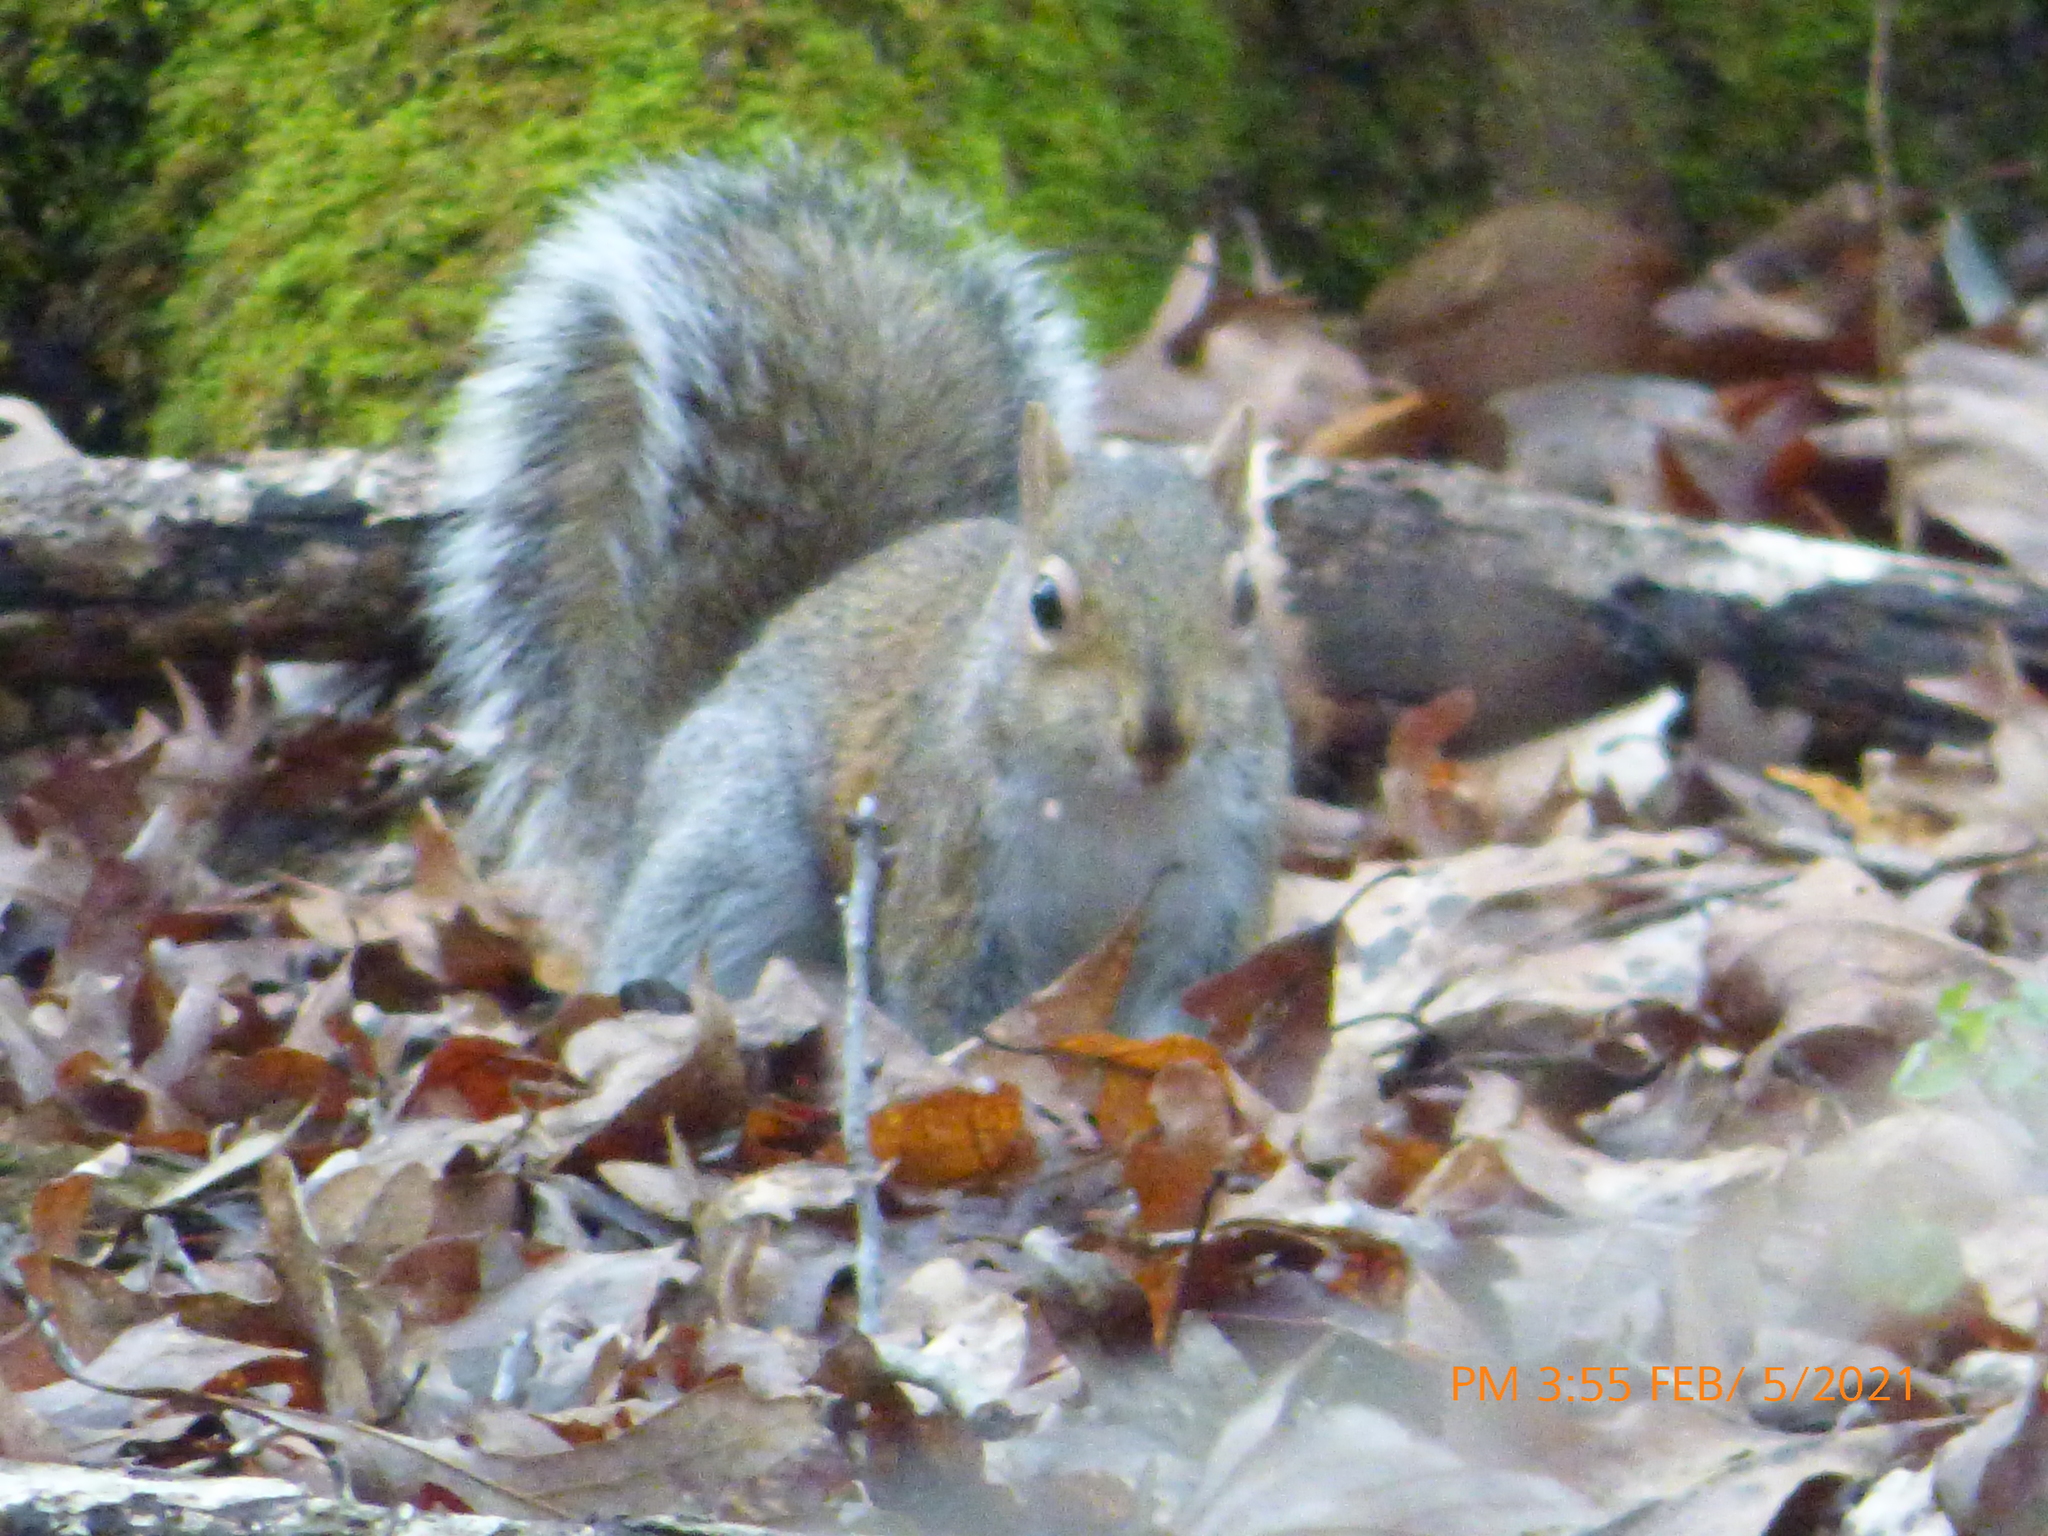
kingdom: Animalia
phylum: Chordata
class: Mammalia
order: Rodentia
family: Sciuridae
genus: Sciurus
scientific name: Sciurus carolinensis
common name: Eastern gray squirrel
